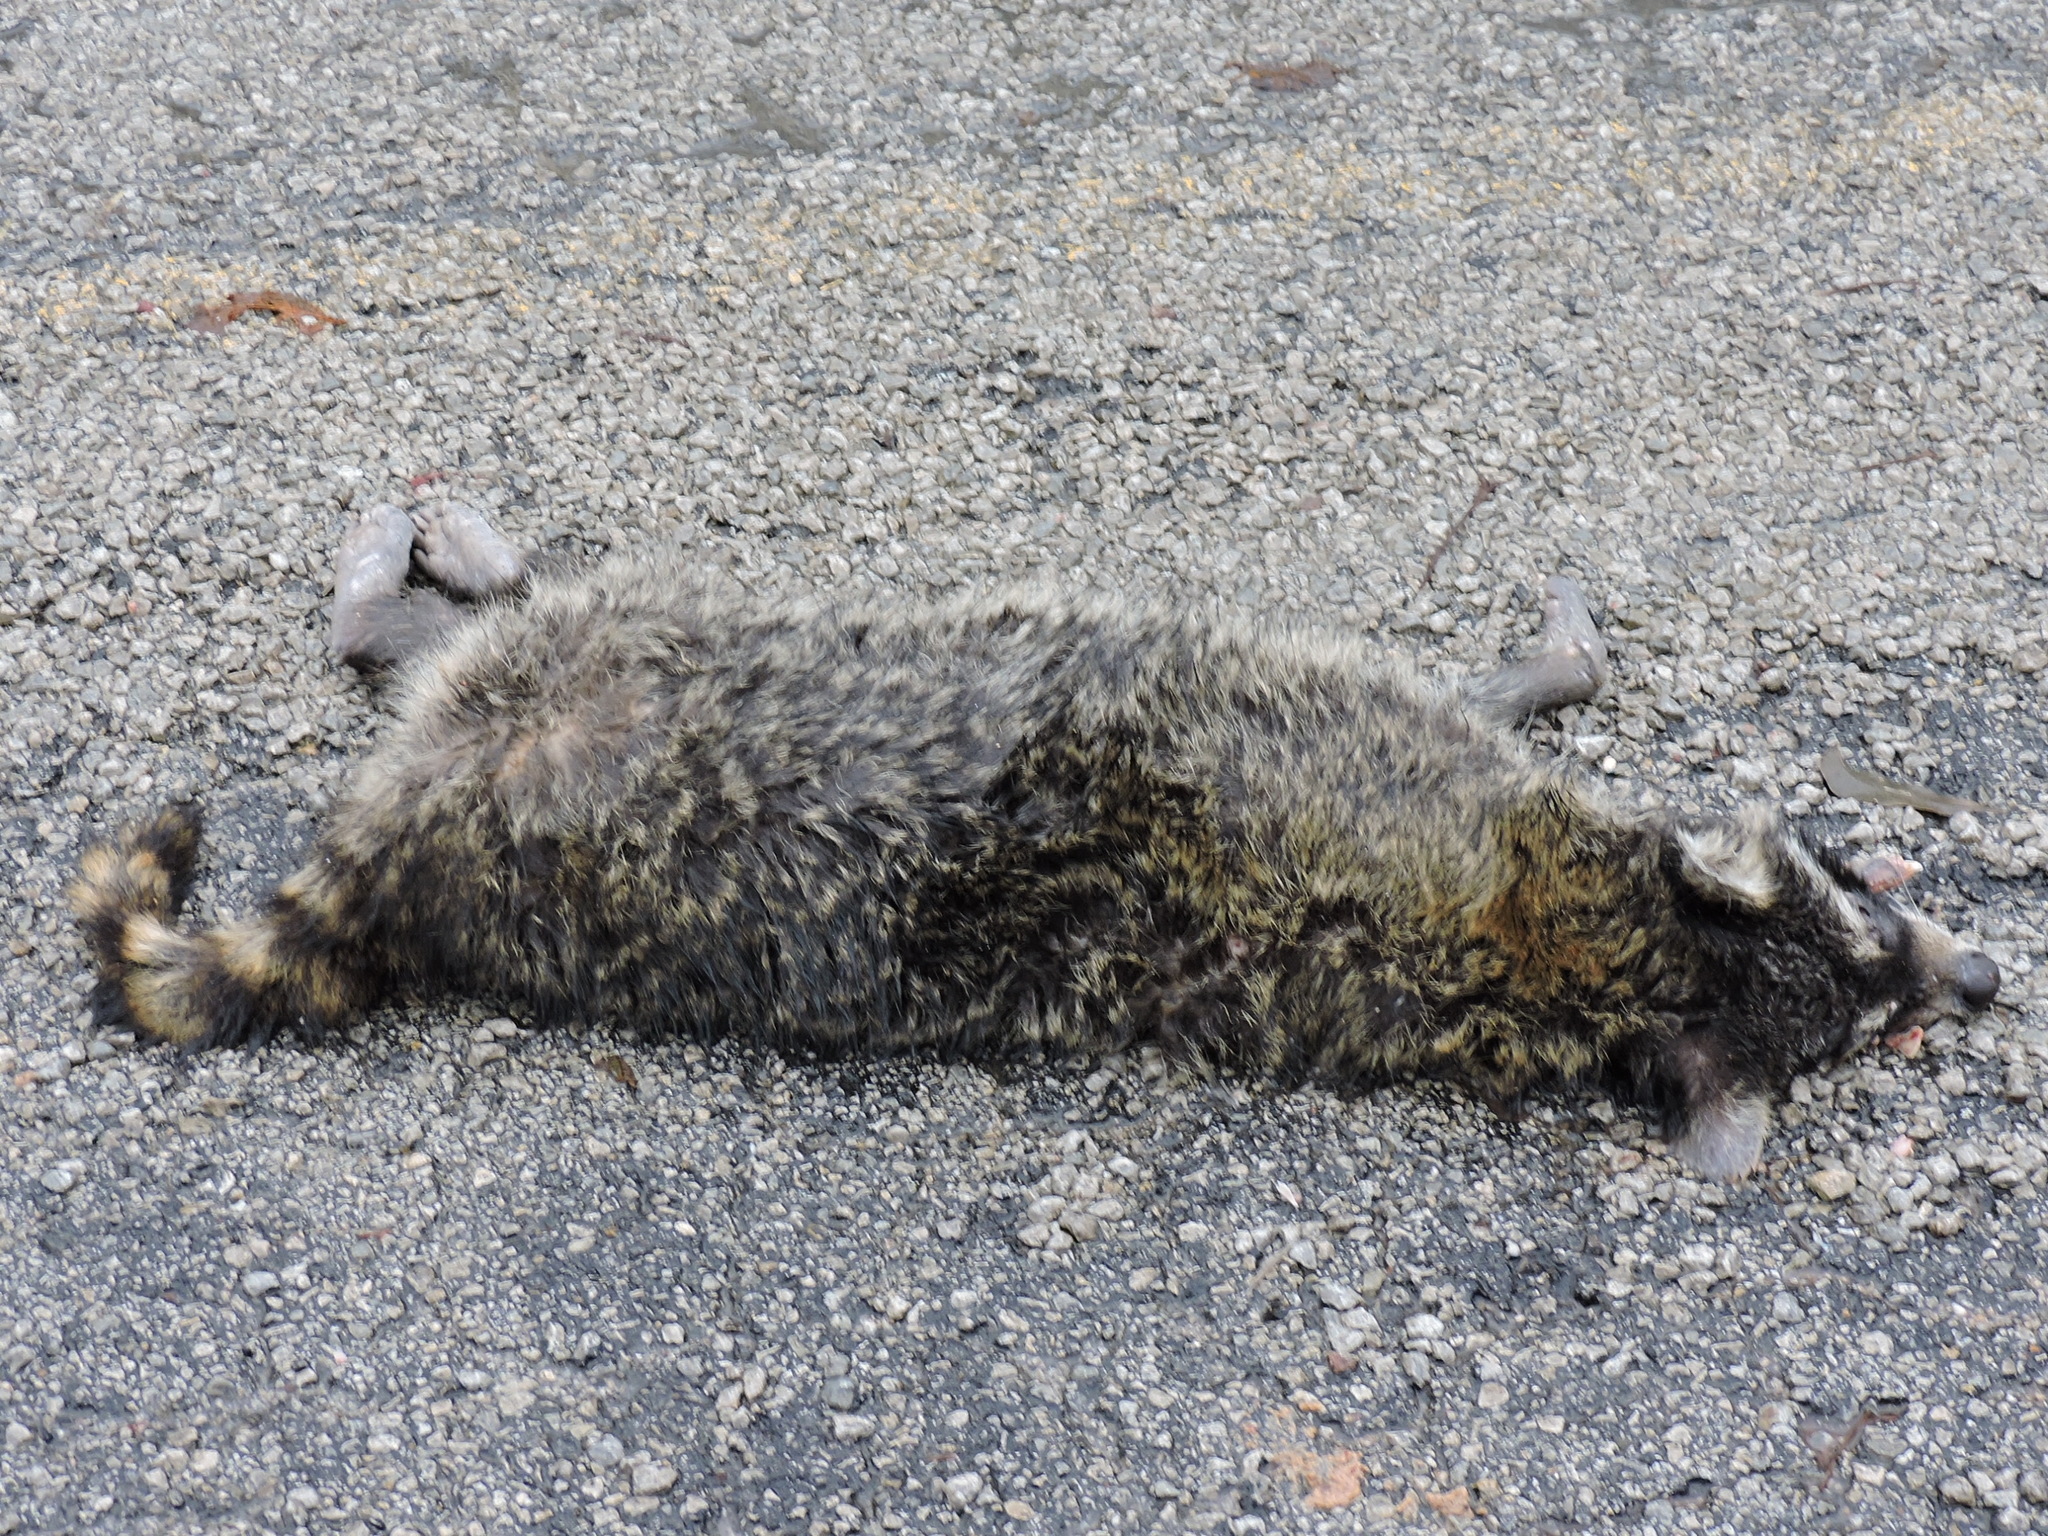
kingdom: Animalia
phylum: Chordata
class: Mammalia
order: Carnivora
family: Procyonidae
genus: Procyon
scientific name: Procyon lotor
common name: Raccoon
